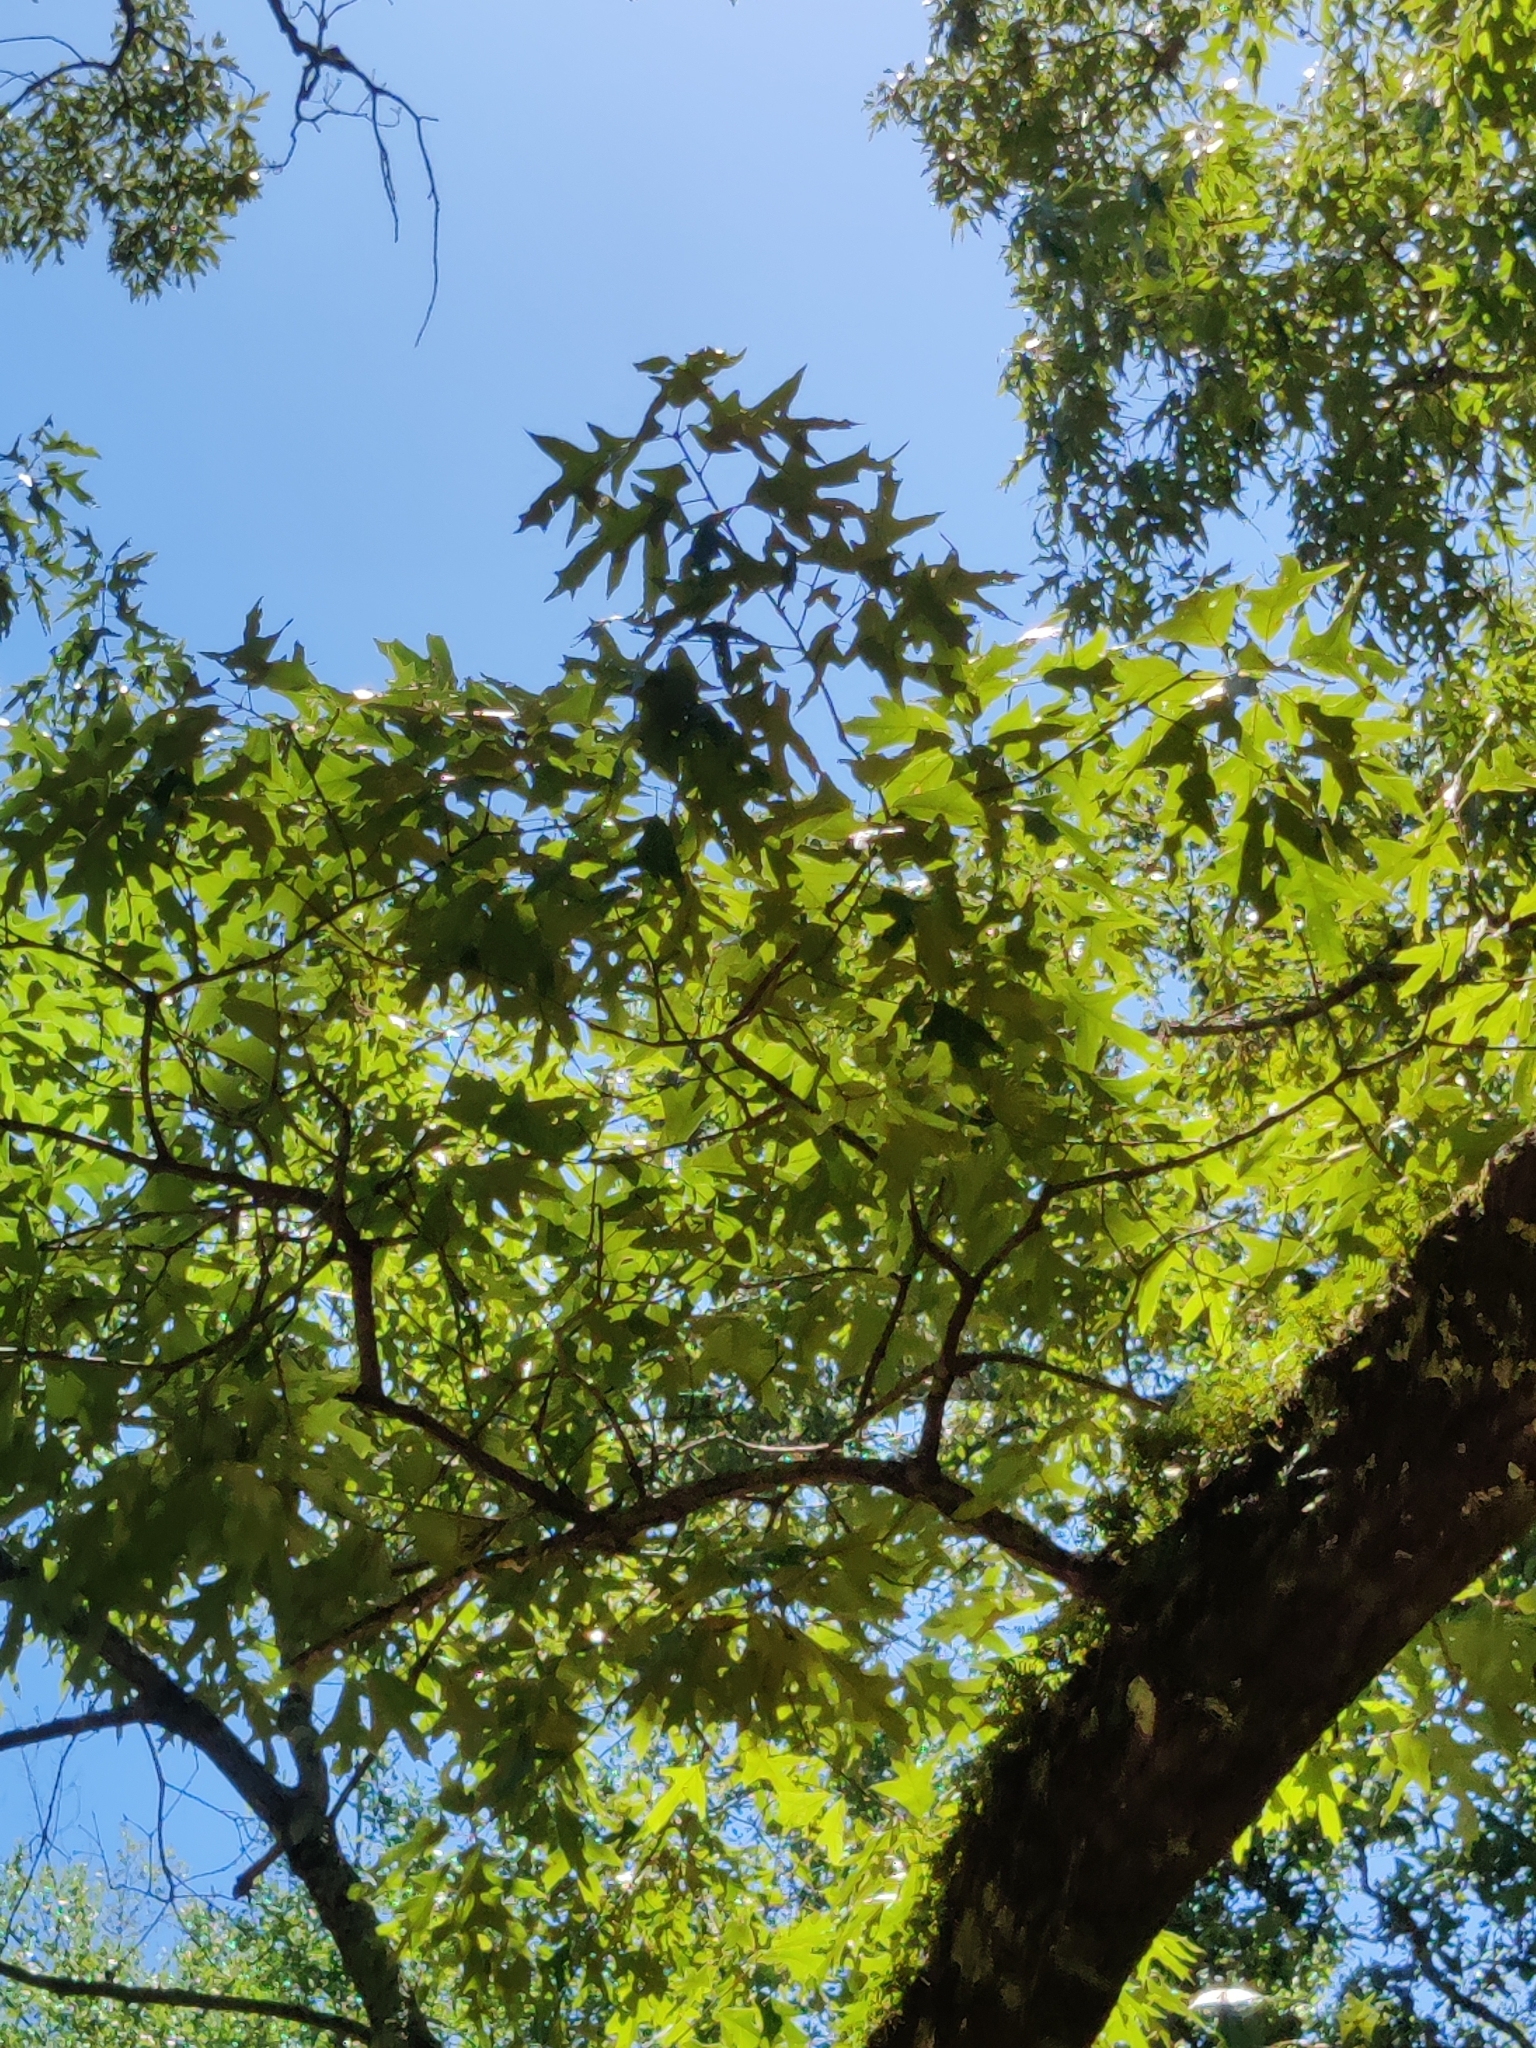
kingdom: Plantae
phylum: Tracheophyta
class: Magnoliopsida
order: Fagales
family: Fagaceae
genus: Quercus
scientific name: Quercus falcata
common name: Southern red oak
